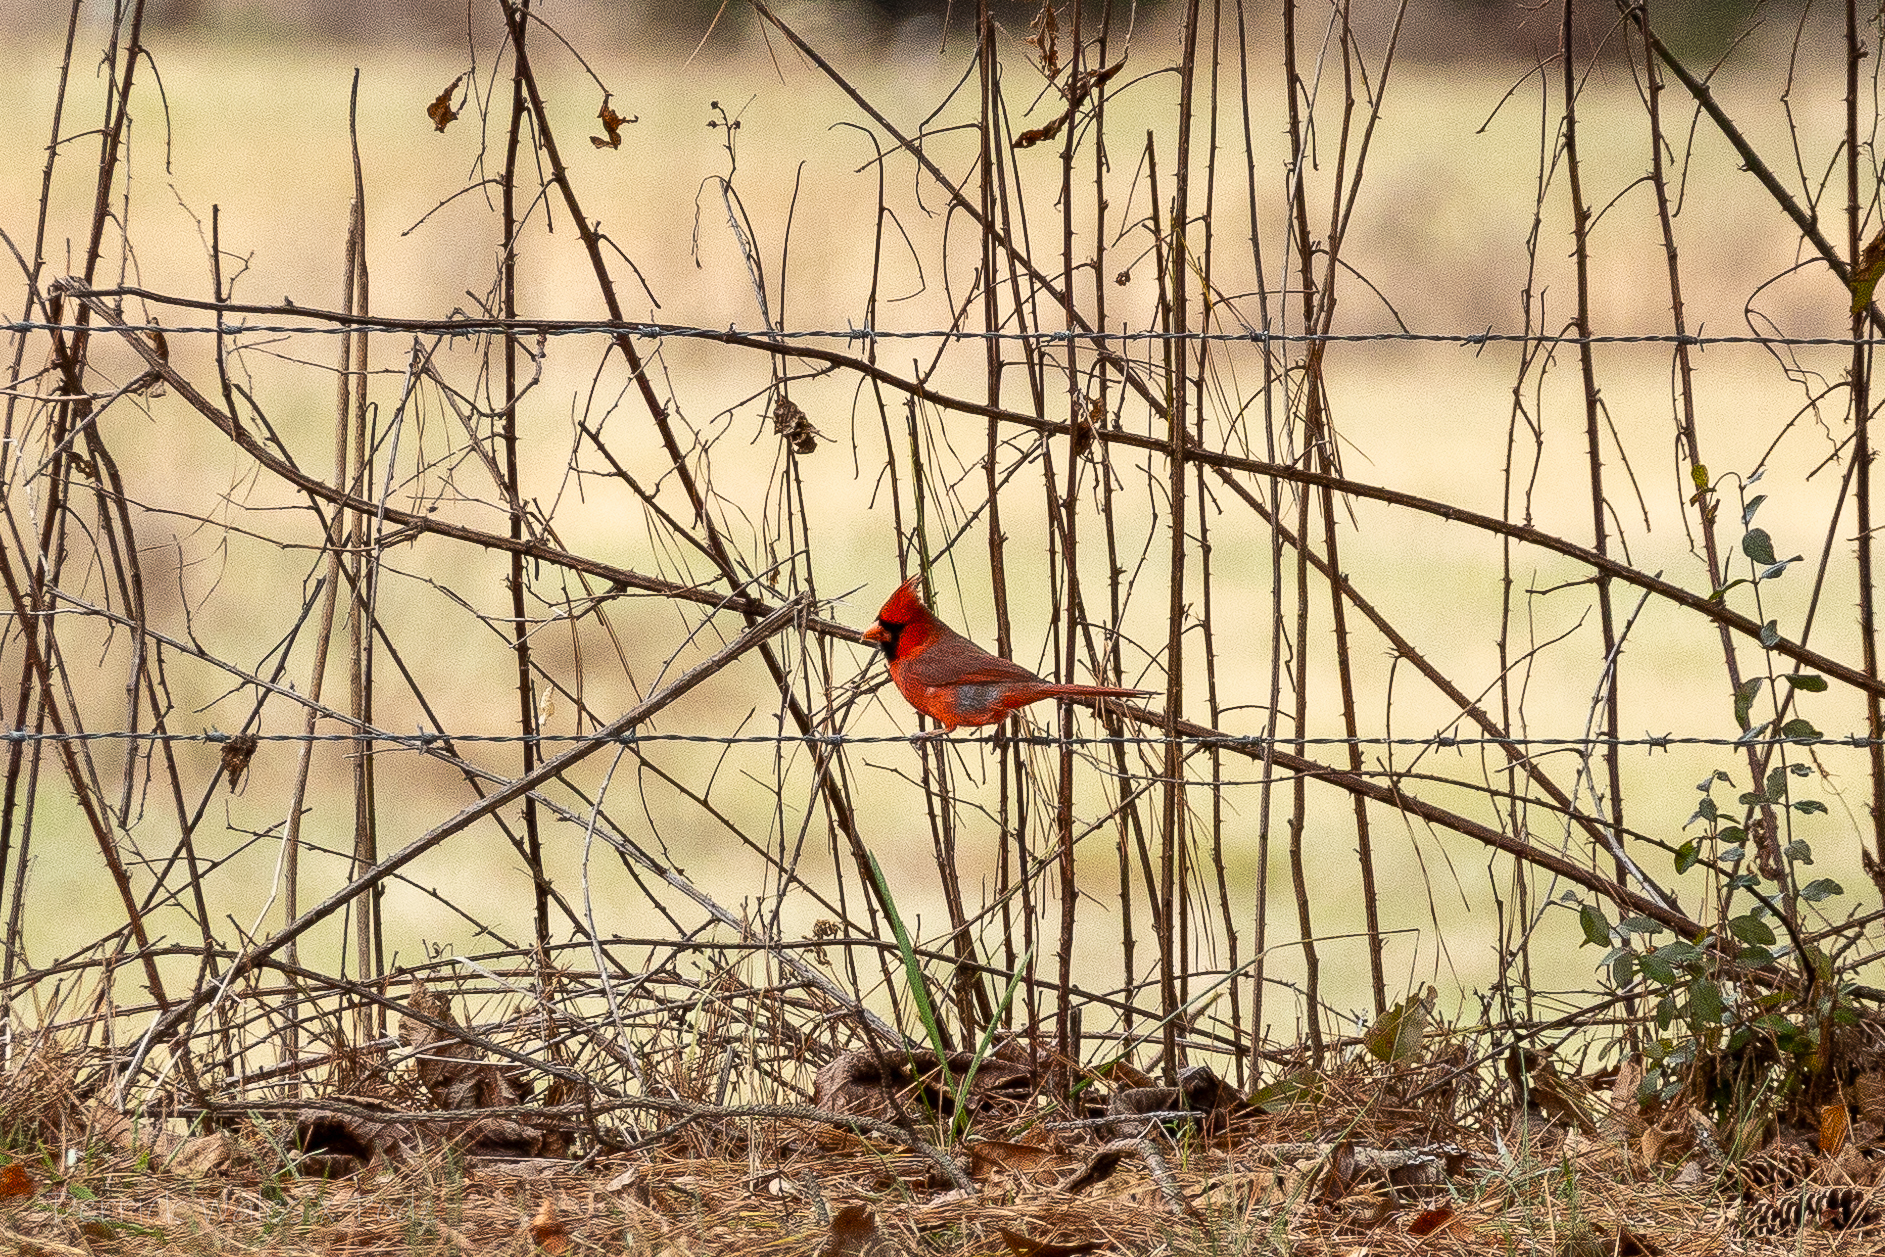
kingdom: Animalia
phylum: Chordata
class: Aves
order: Passeriformes
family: Cardinalidae
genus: Cardinalis
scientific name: Cardinalis cardinalis
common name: Northern cardinal
